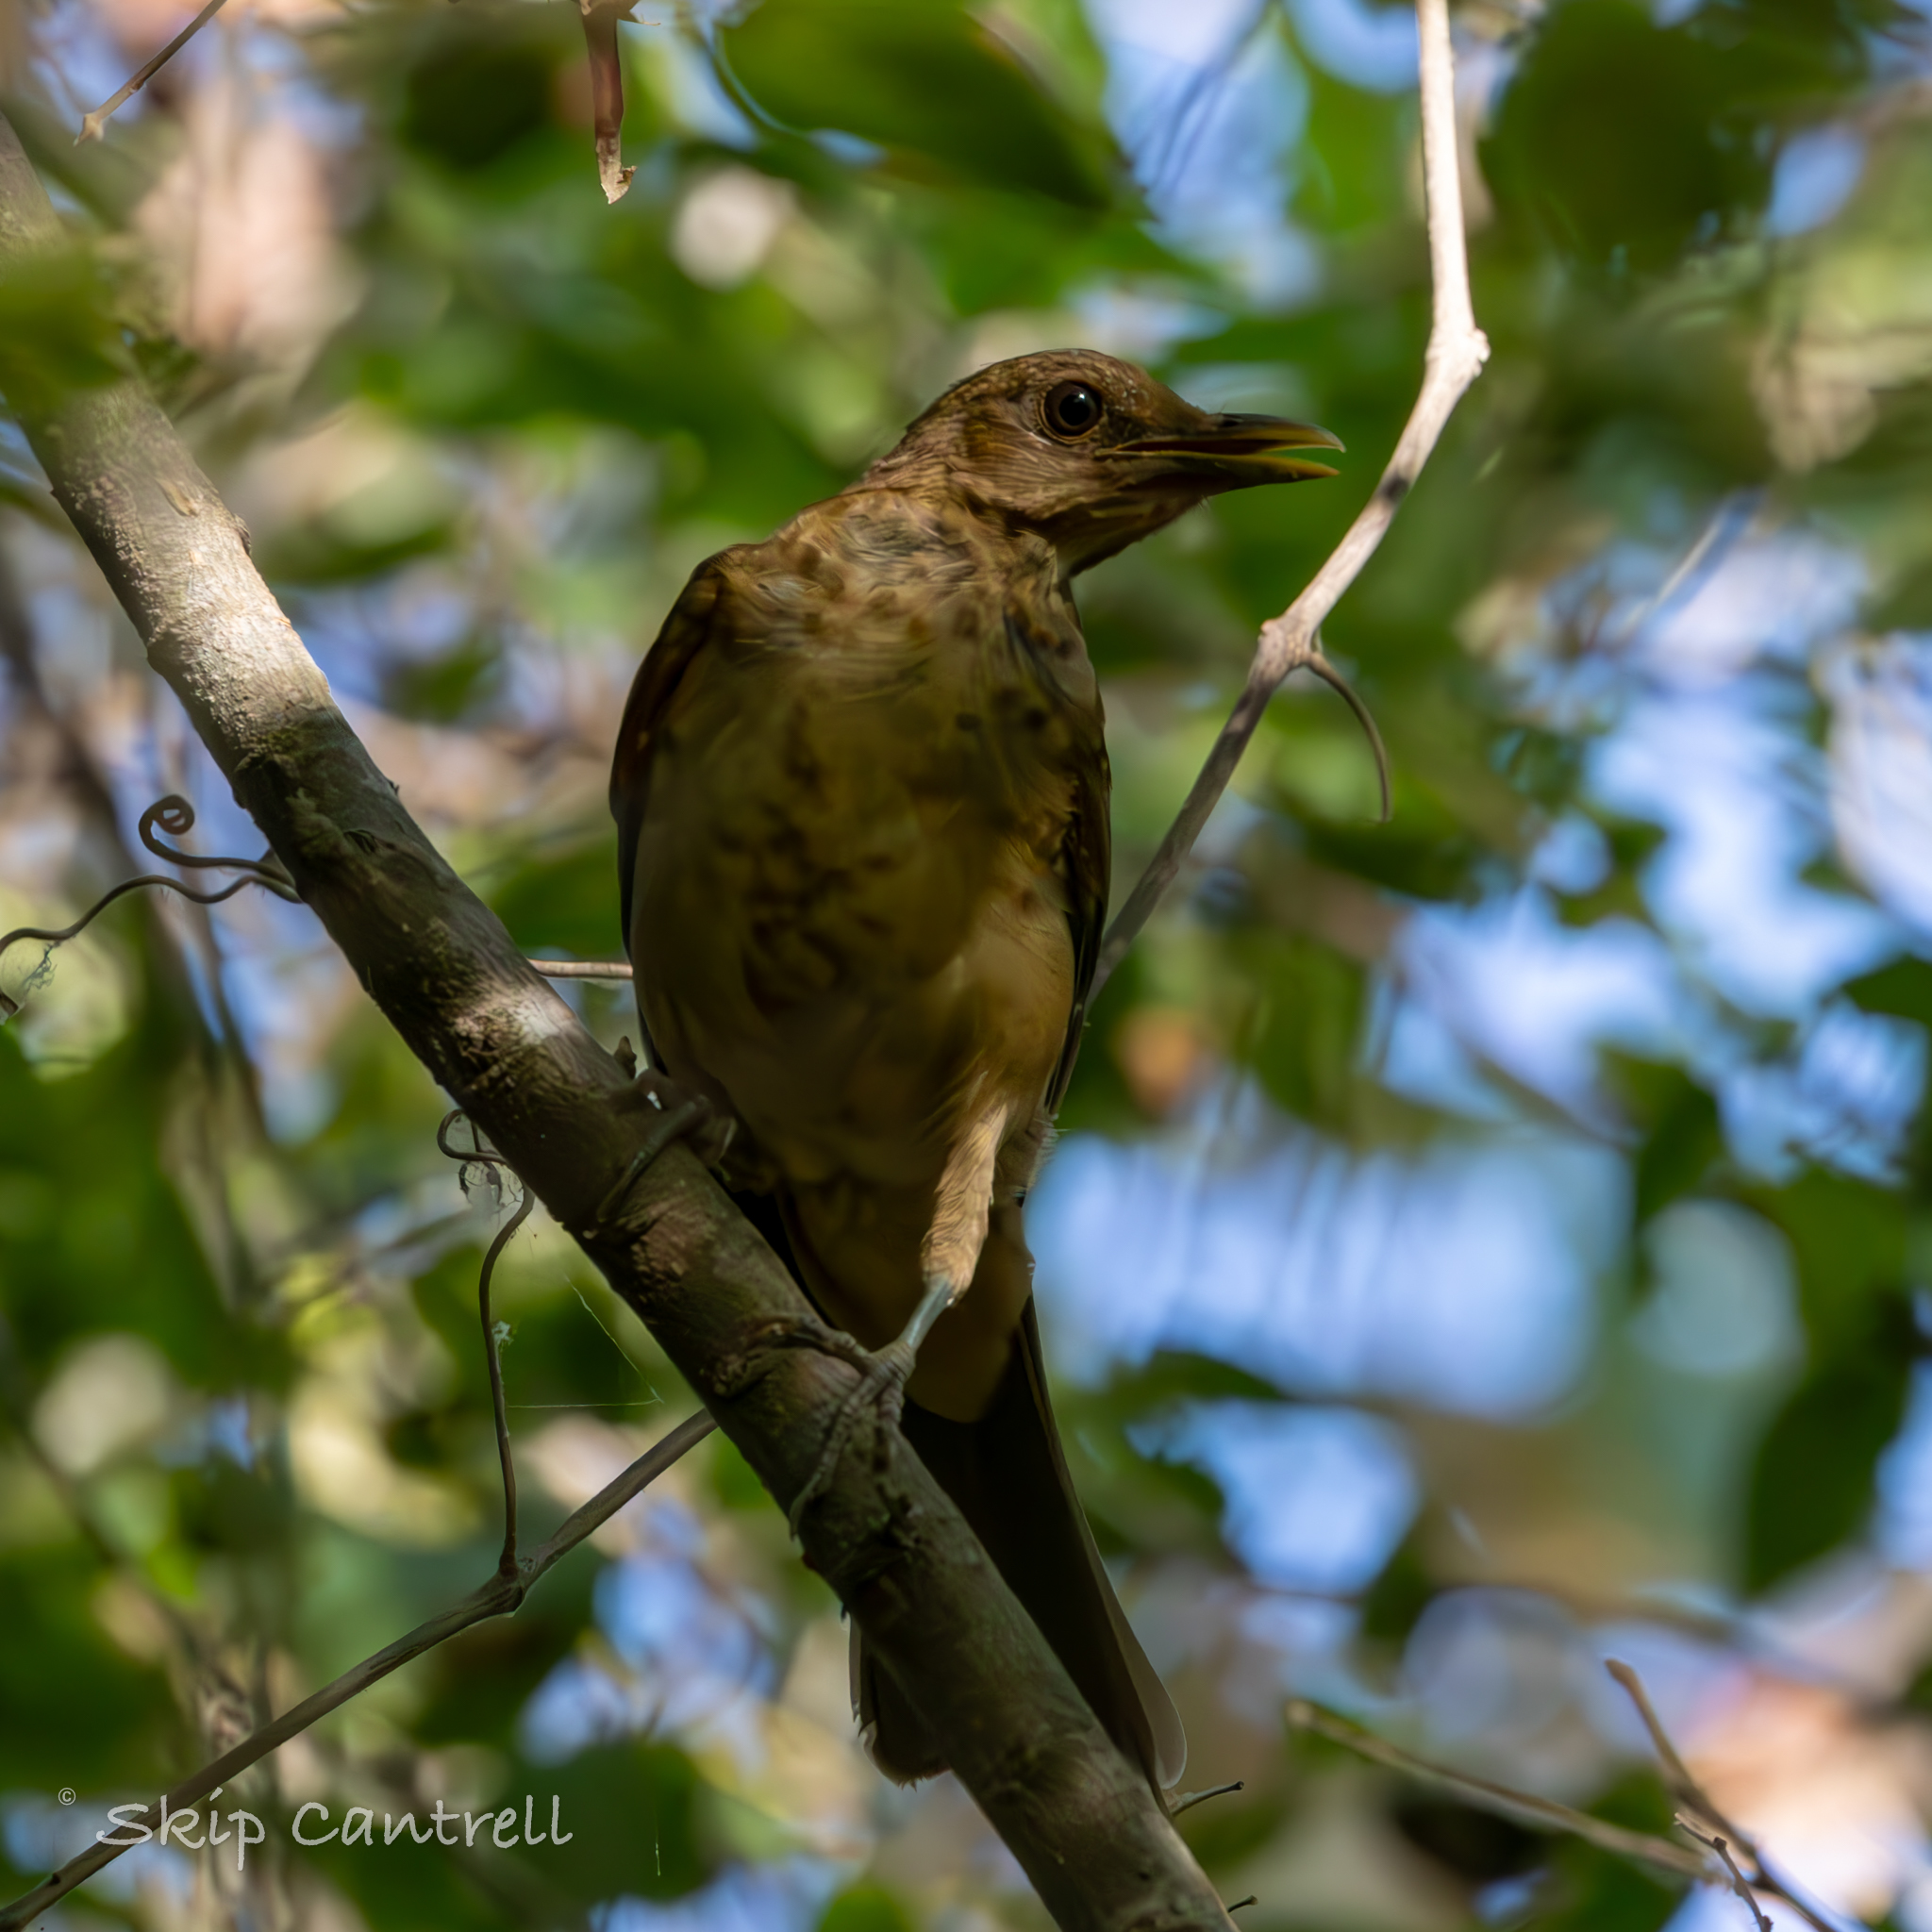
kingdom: Animalia
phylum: Chordata
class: Aves
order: Passeriformes
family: Turdidae
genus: Turdus
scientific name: Turdus grayi
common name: Clay-colored thrush
